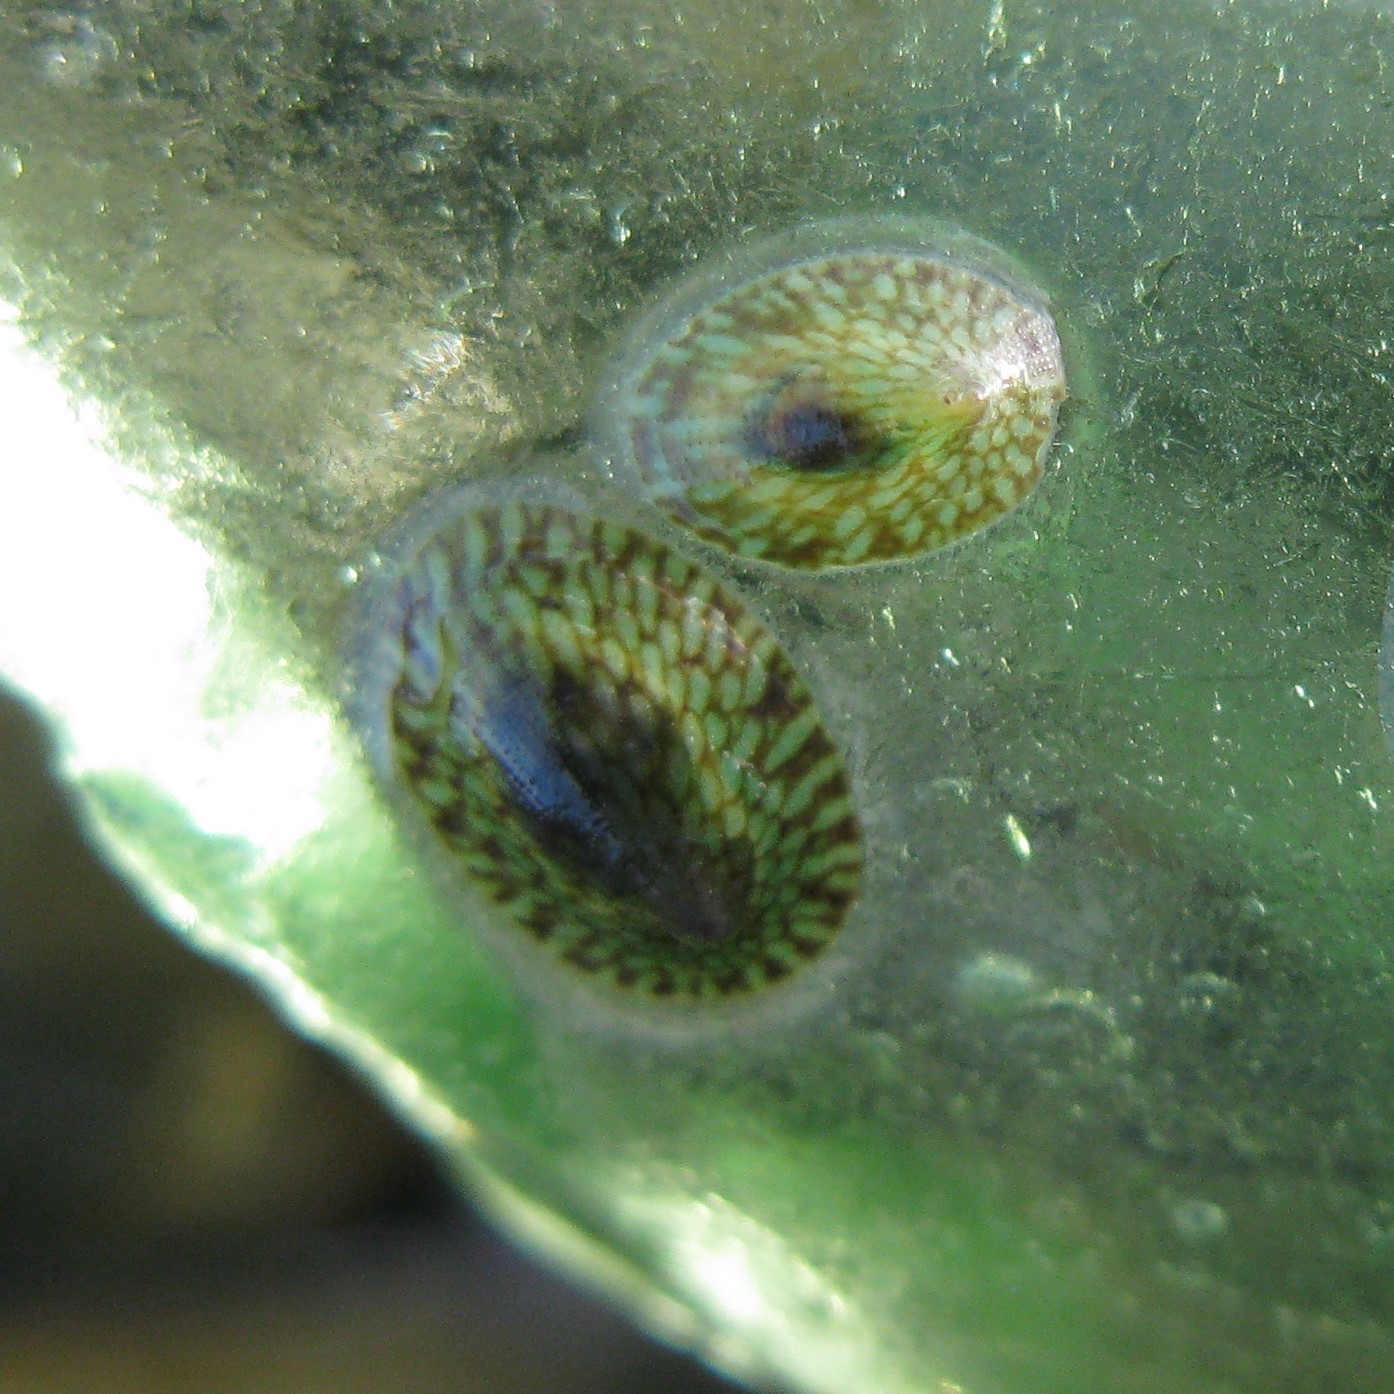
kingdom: Animalia
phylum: Mollusca
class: Gastropoda
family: Lottiidae
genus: Notoacmea
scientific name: Notoacmea elongata
